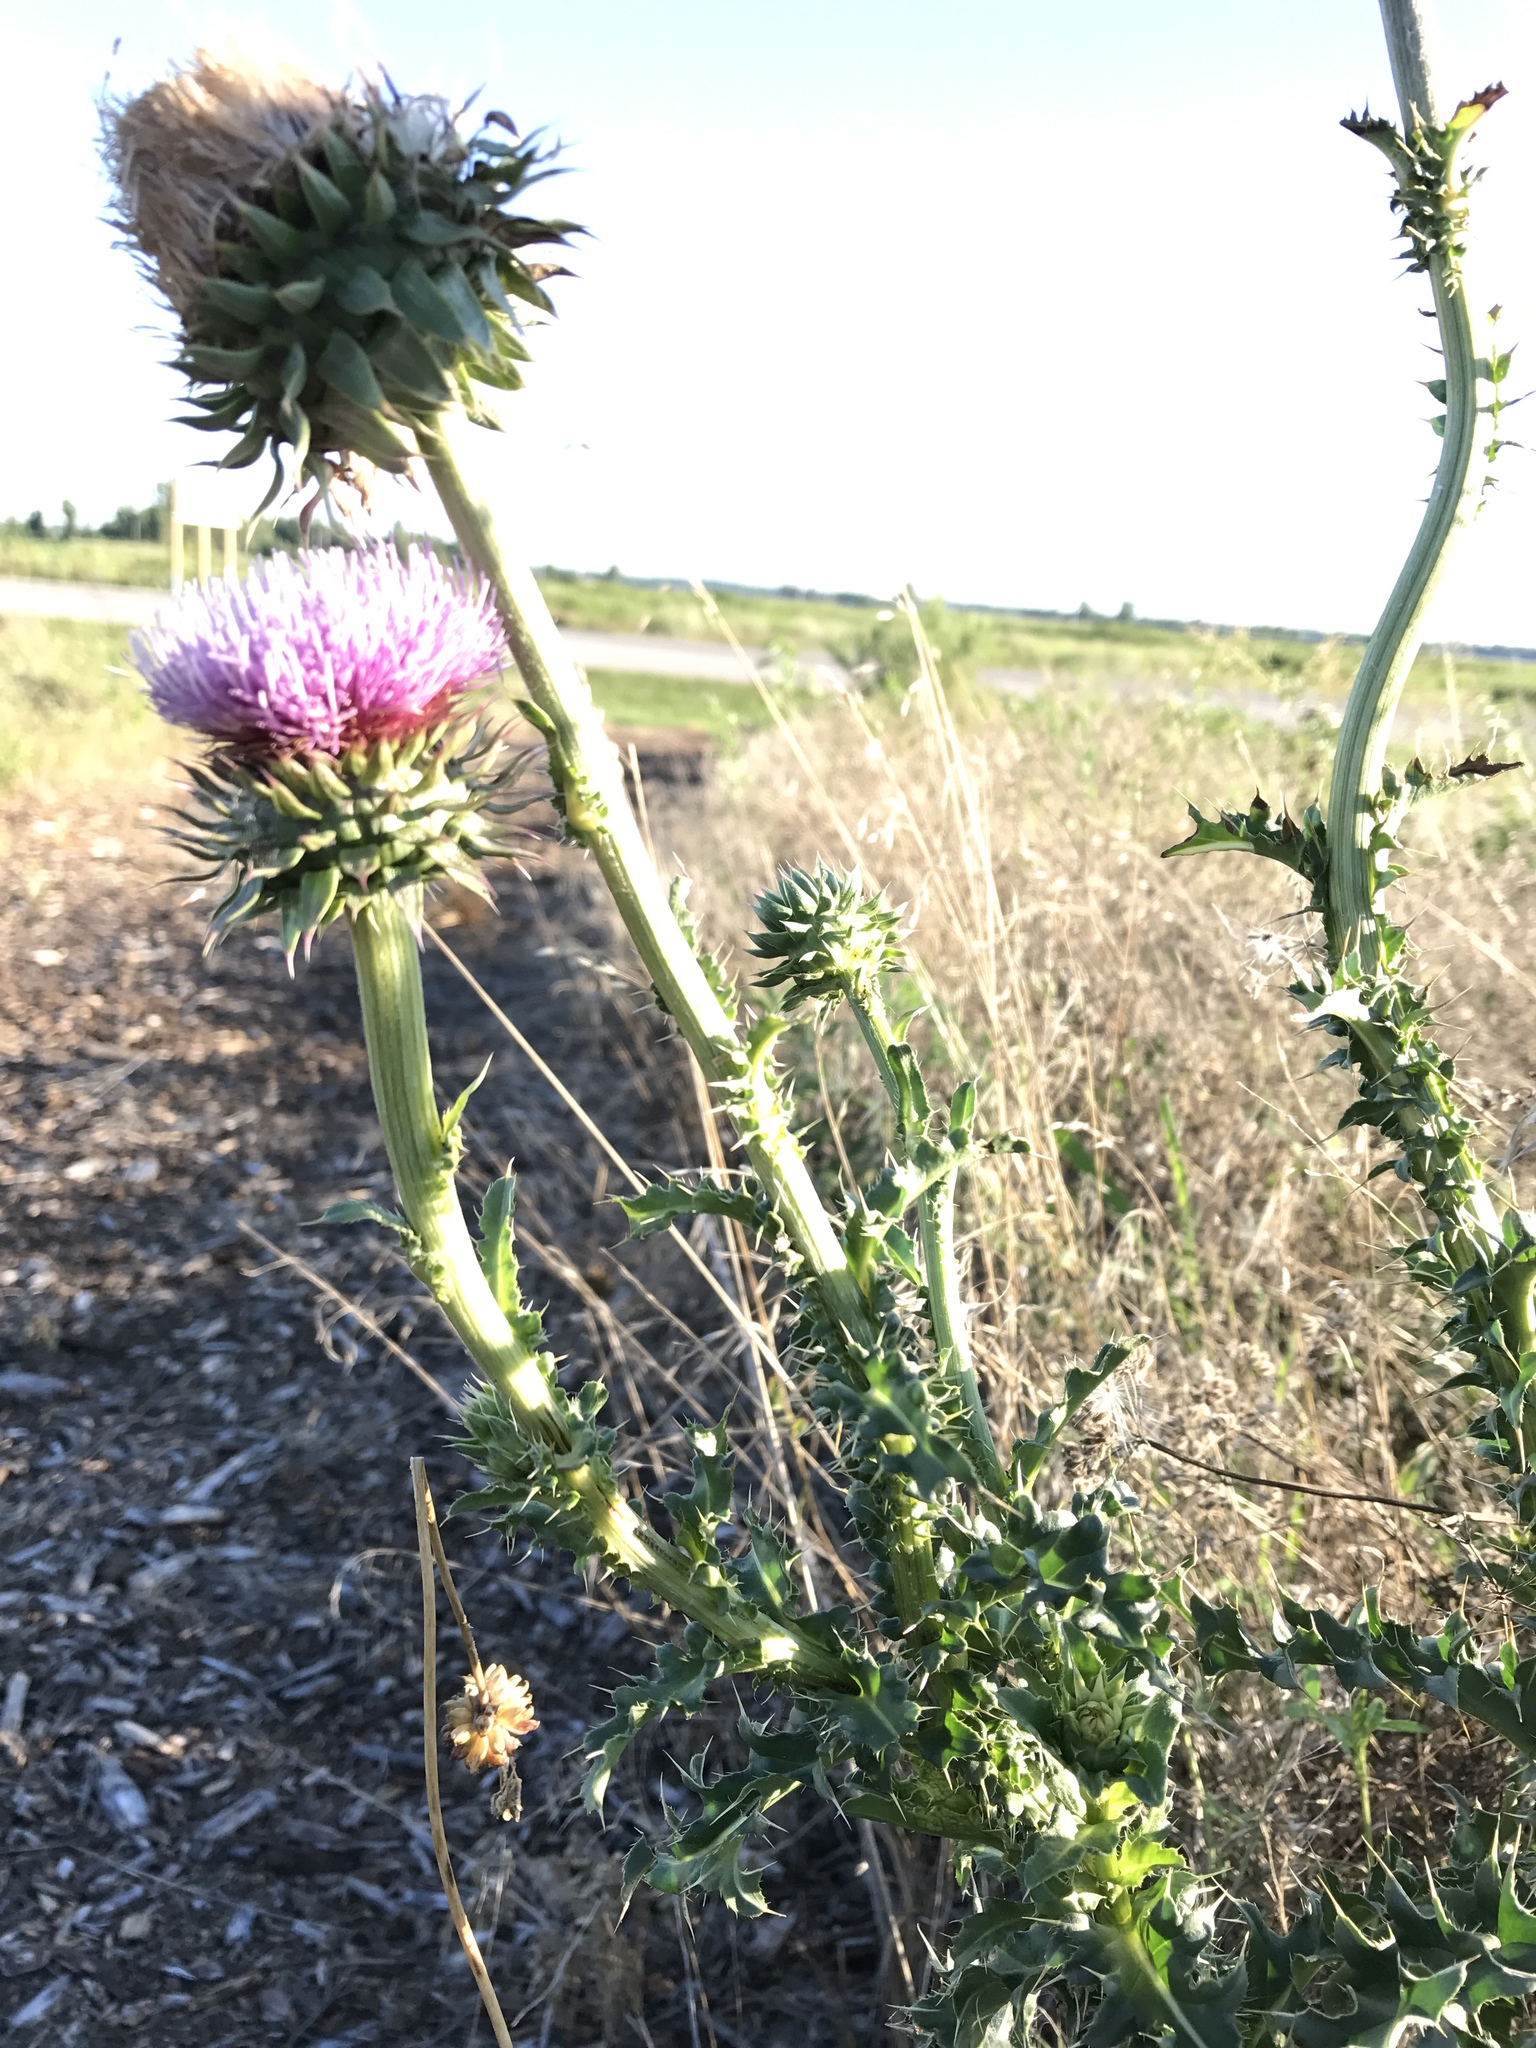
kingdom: Plantae
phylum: Tracheophyta
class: Magnoliopsida
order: Asterales
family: Asteraceae
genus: Carduus
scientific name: Carduus nutans
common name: Musk thistle
